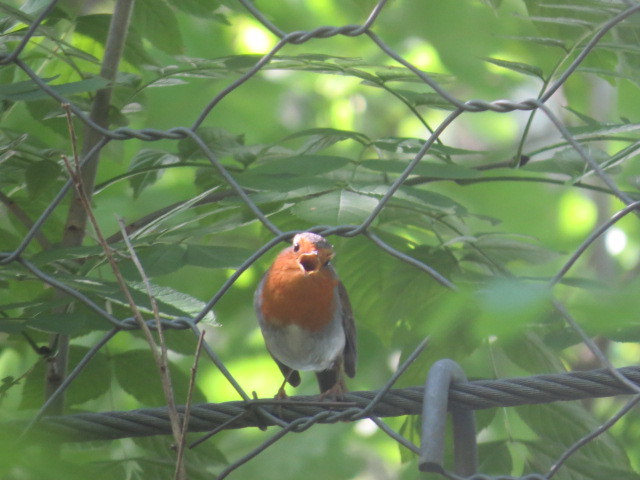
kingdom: Animalia
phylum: Chordata
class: Aves
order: Passeriformes
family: Muscicapidae
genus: Erithacus
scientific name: Erithacus rubecula
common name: European robin
